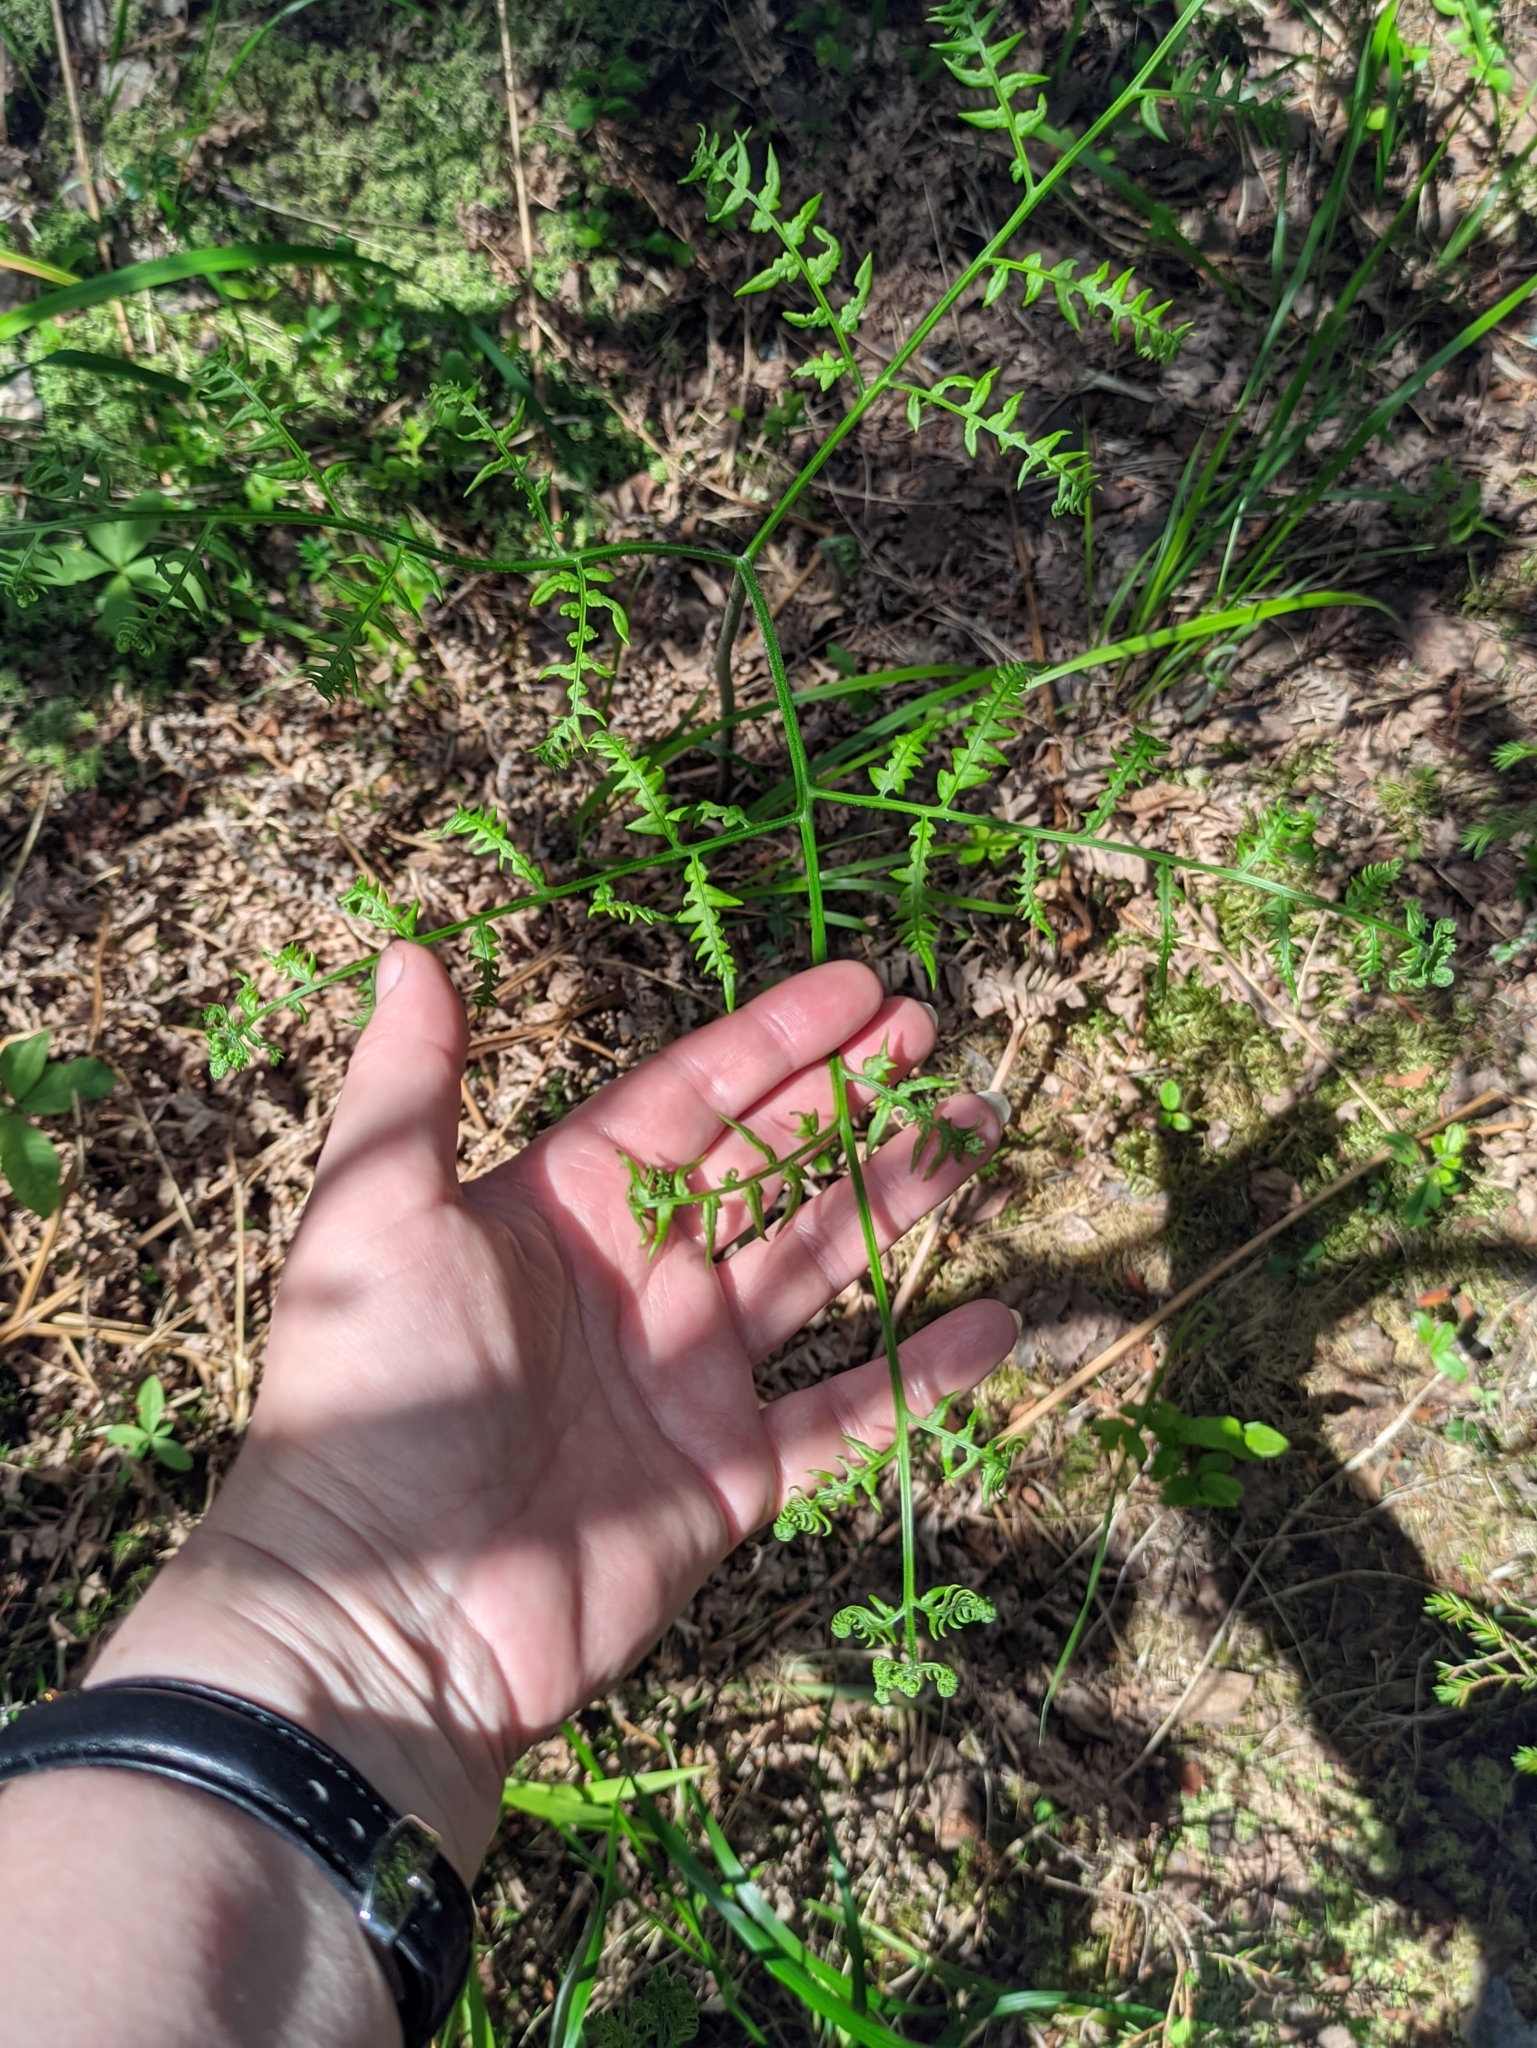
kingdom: Plantae
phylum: Tracheophyta
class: Polypodiopsida
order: Polypodiales
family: Dennstaedtiaceae
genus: Pteridium
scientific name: Pteridium aquilinum
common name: Bracken
